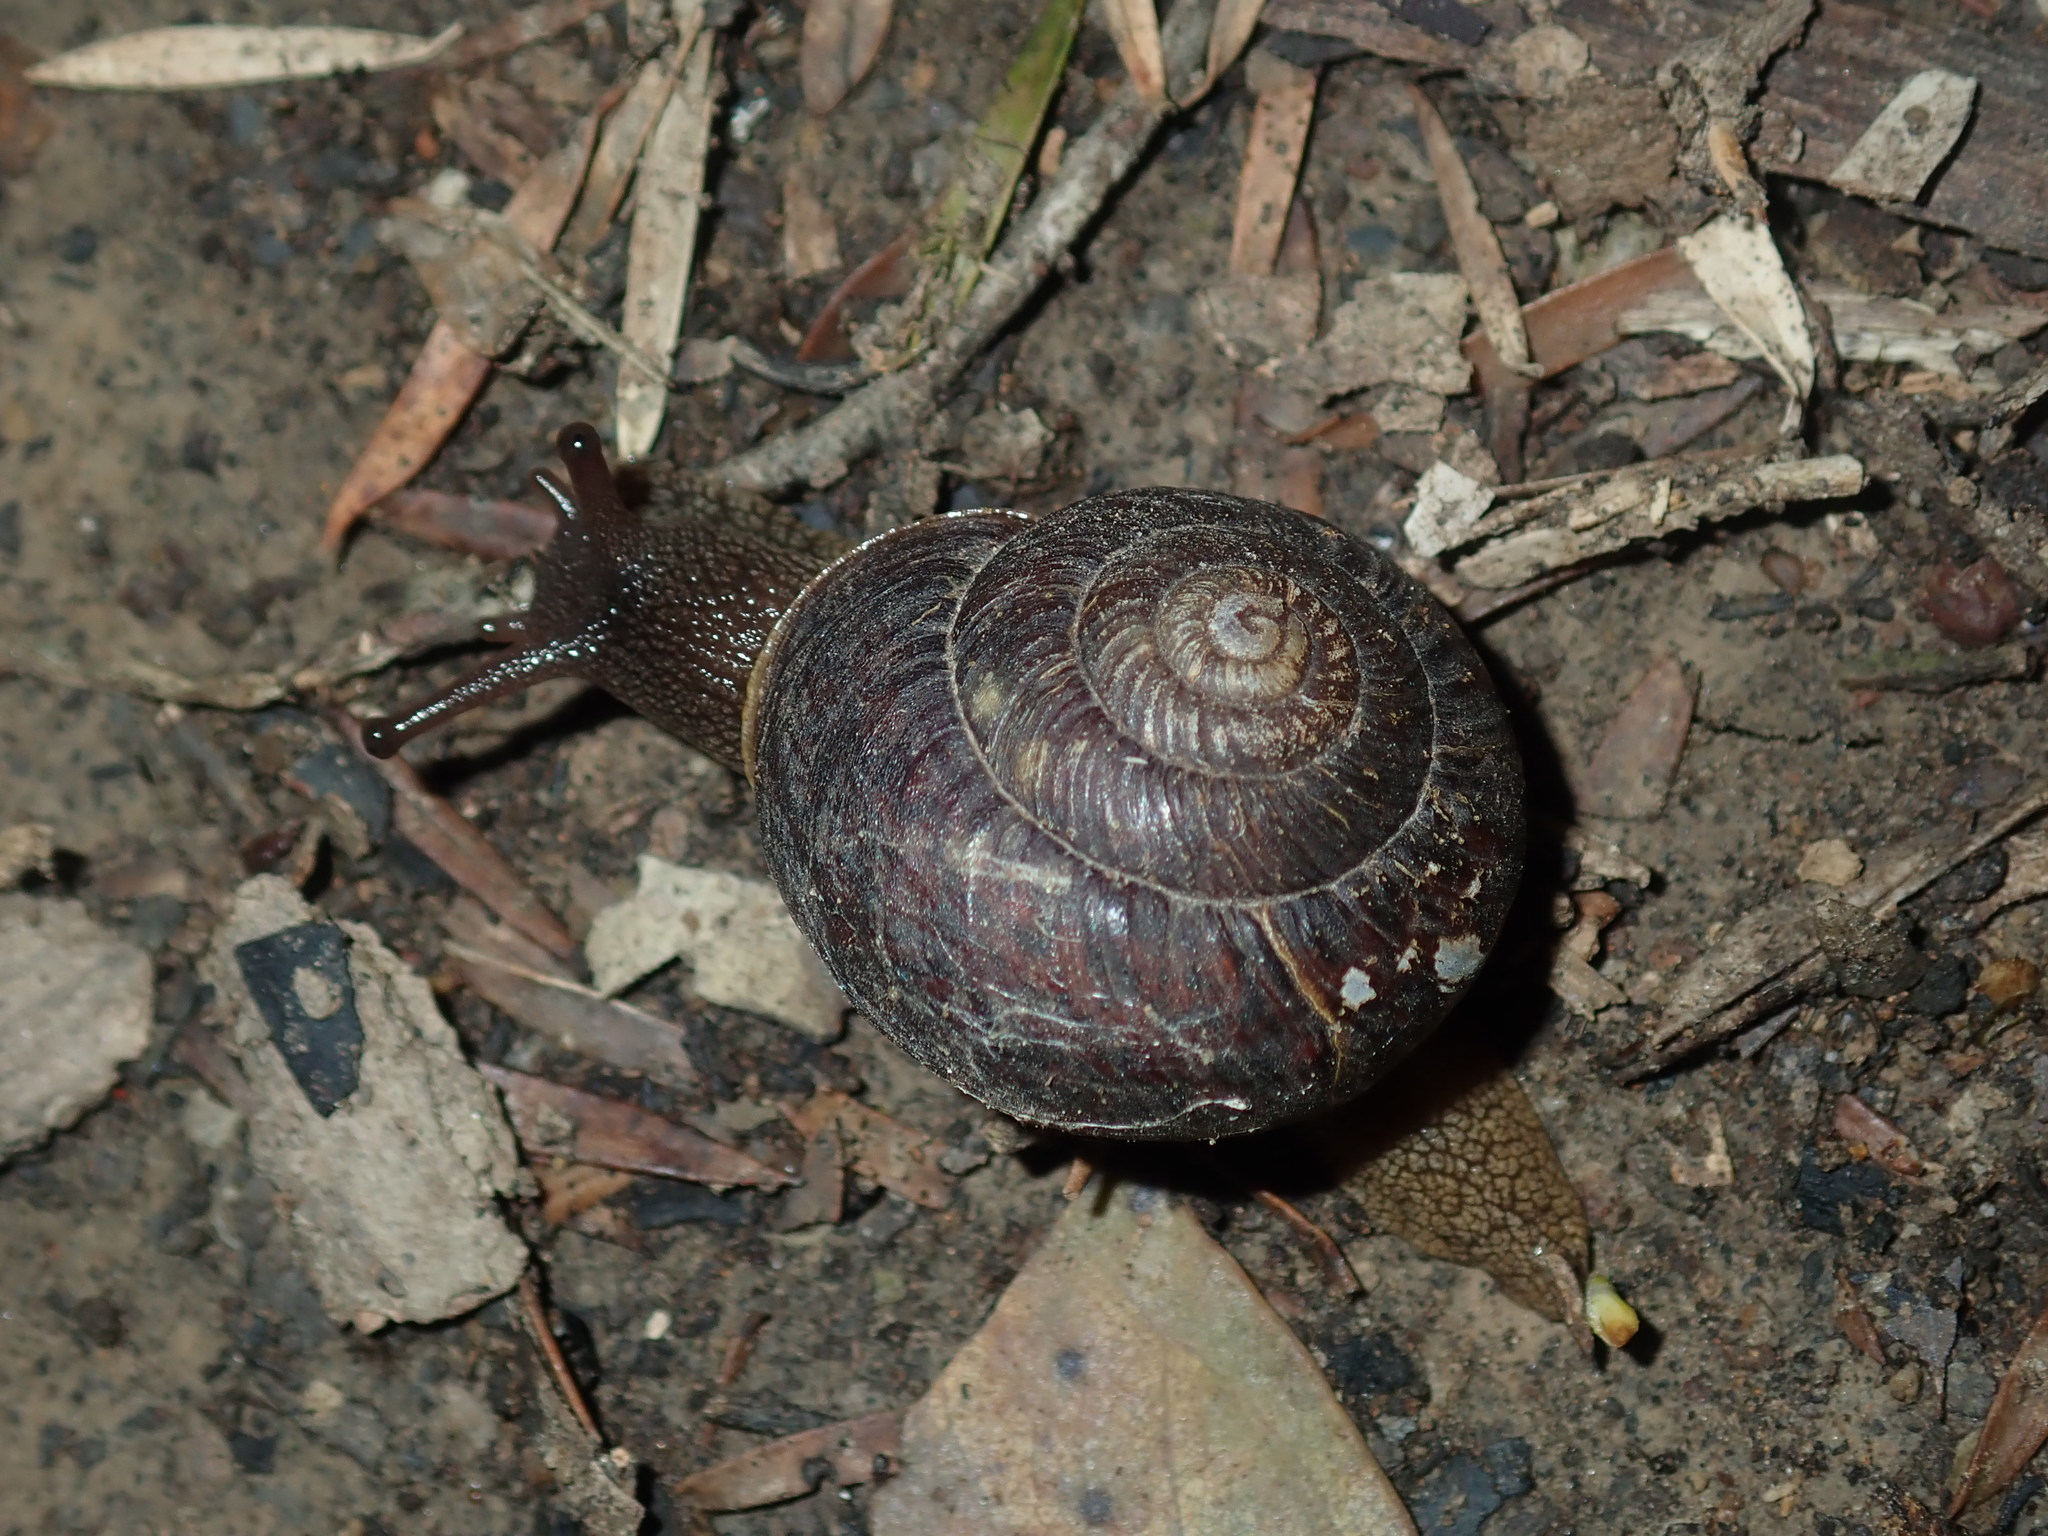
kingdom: Animalia
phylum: Mollusca
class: Gastropoda
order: Stylommatophora
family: Camaenidae
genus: Sauroconcha
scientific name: Sauroconcha sheai
